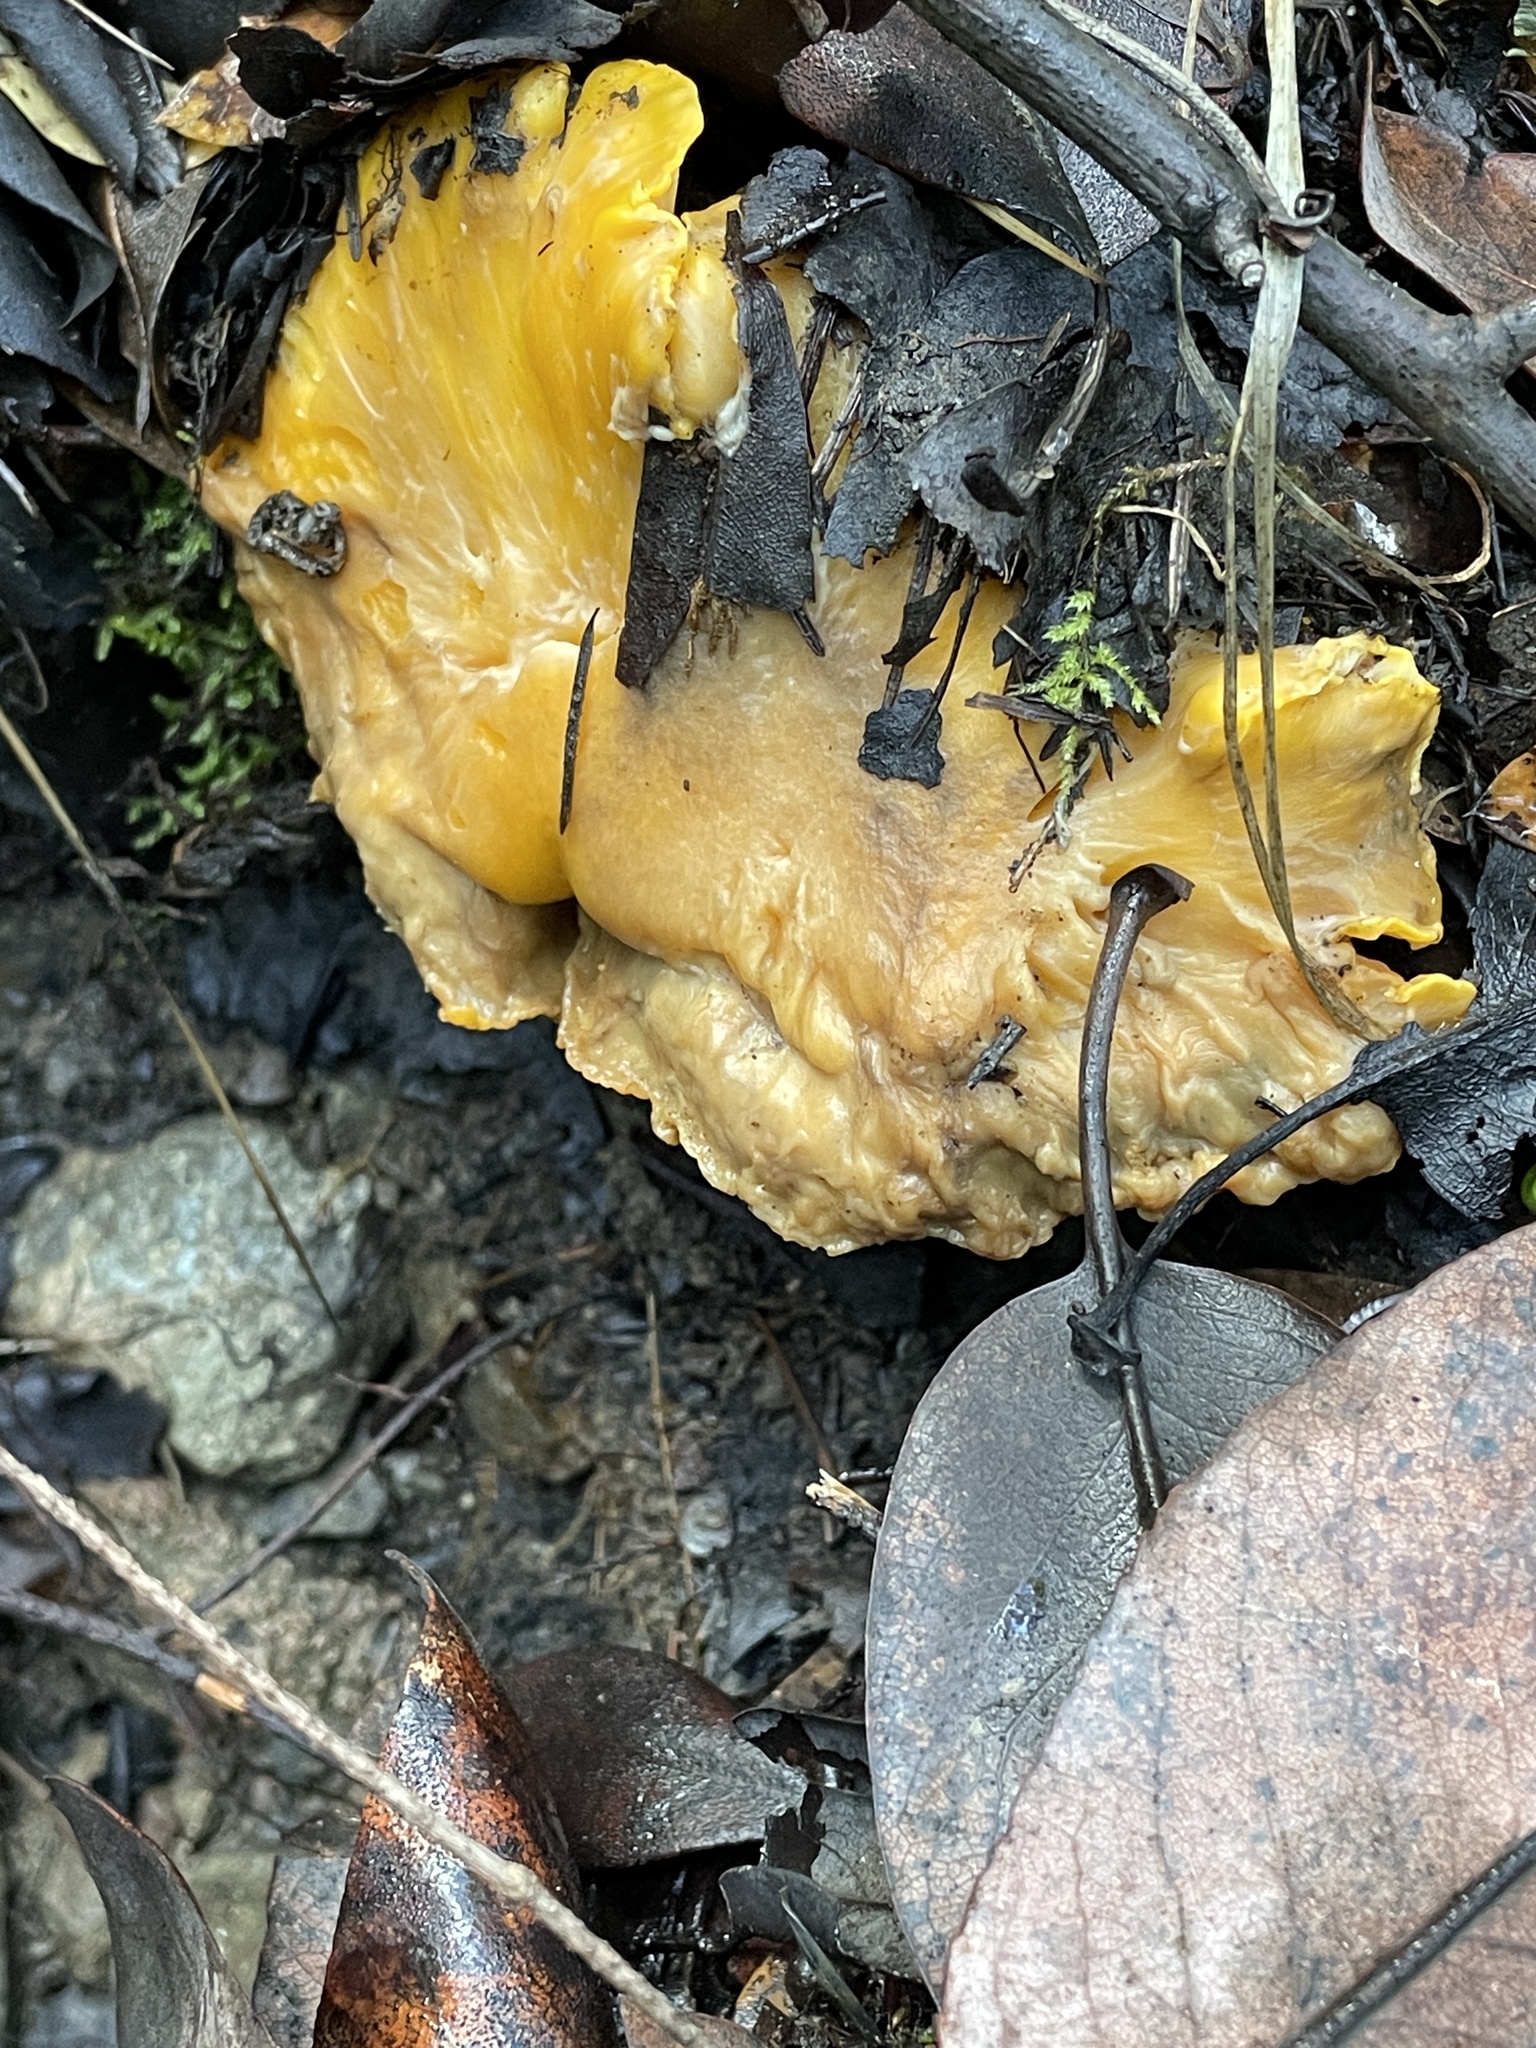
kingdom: Fungi
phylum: Basidiomycota
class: Agaricomycetes
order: Cantharellales
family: Hydnaceae
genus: Cantharellus
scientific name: Cantharellus californicus
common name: California golden chanterelle
